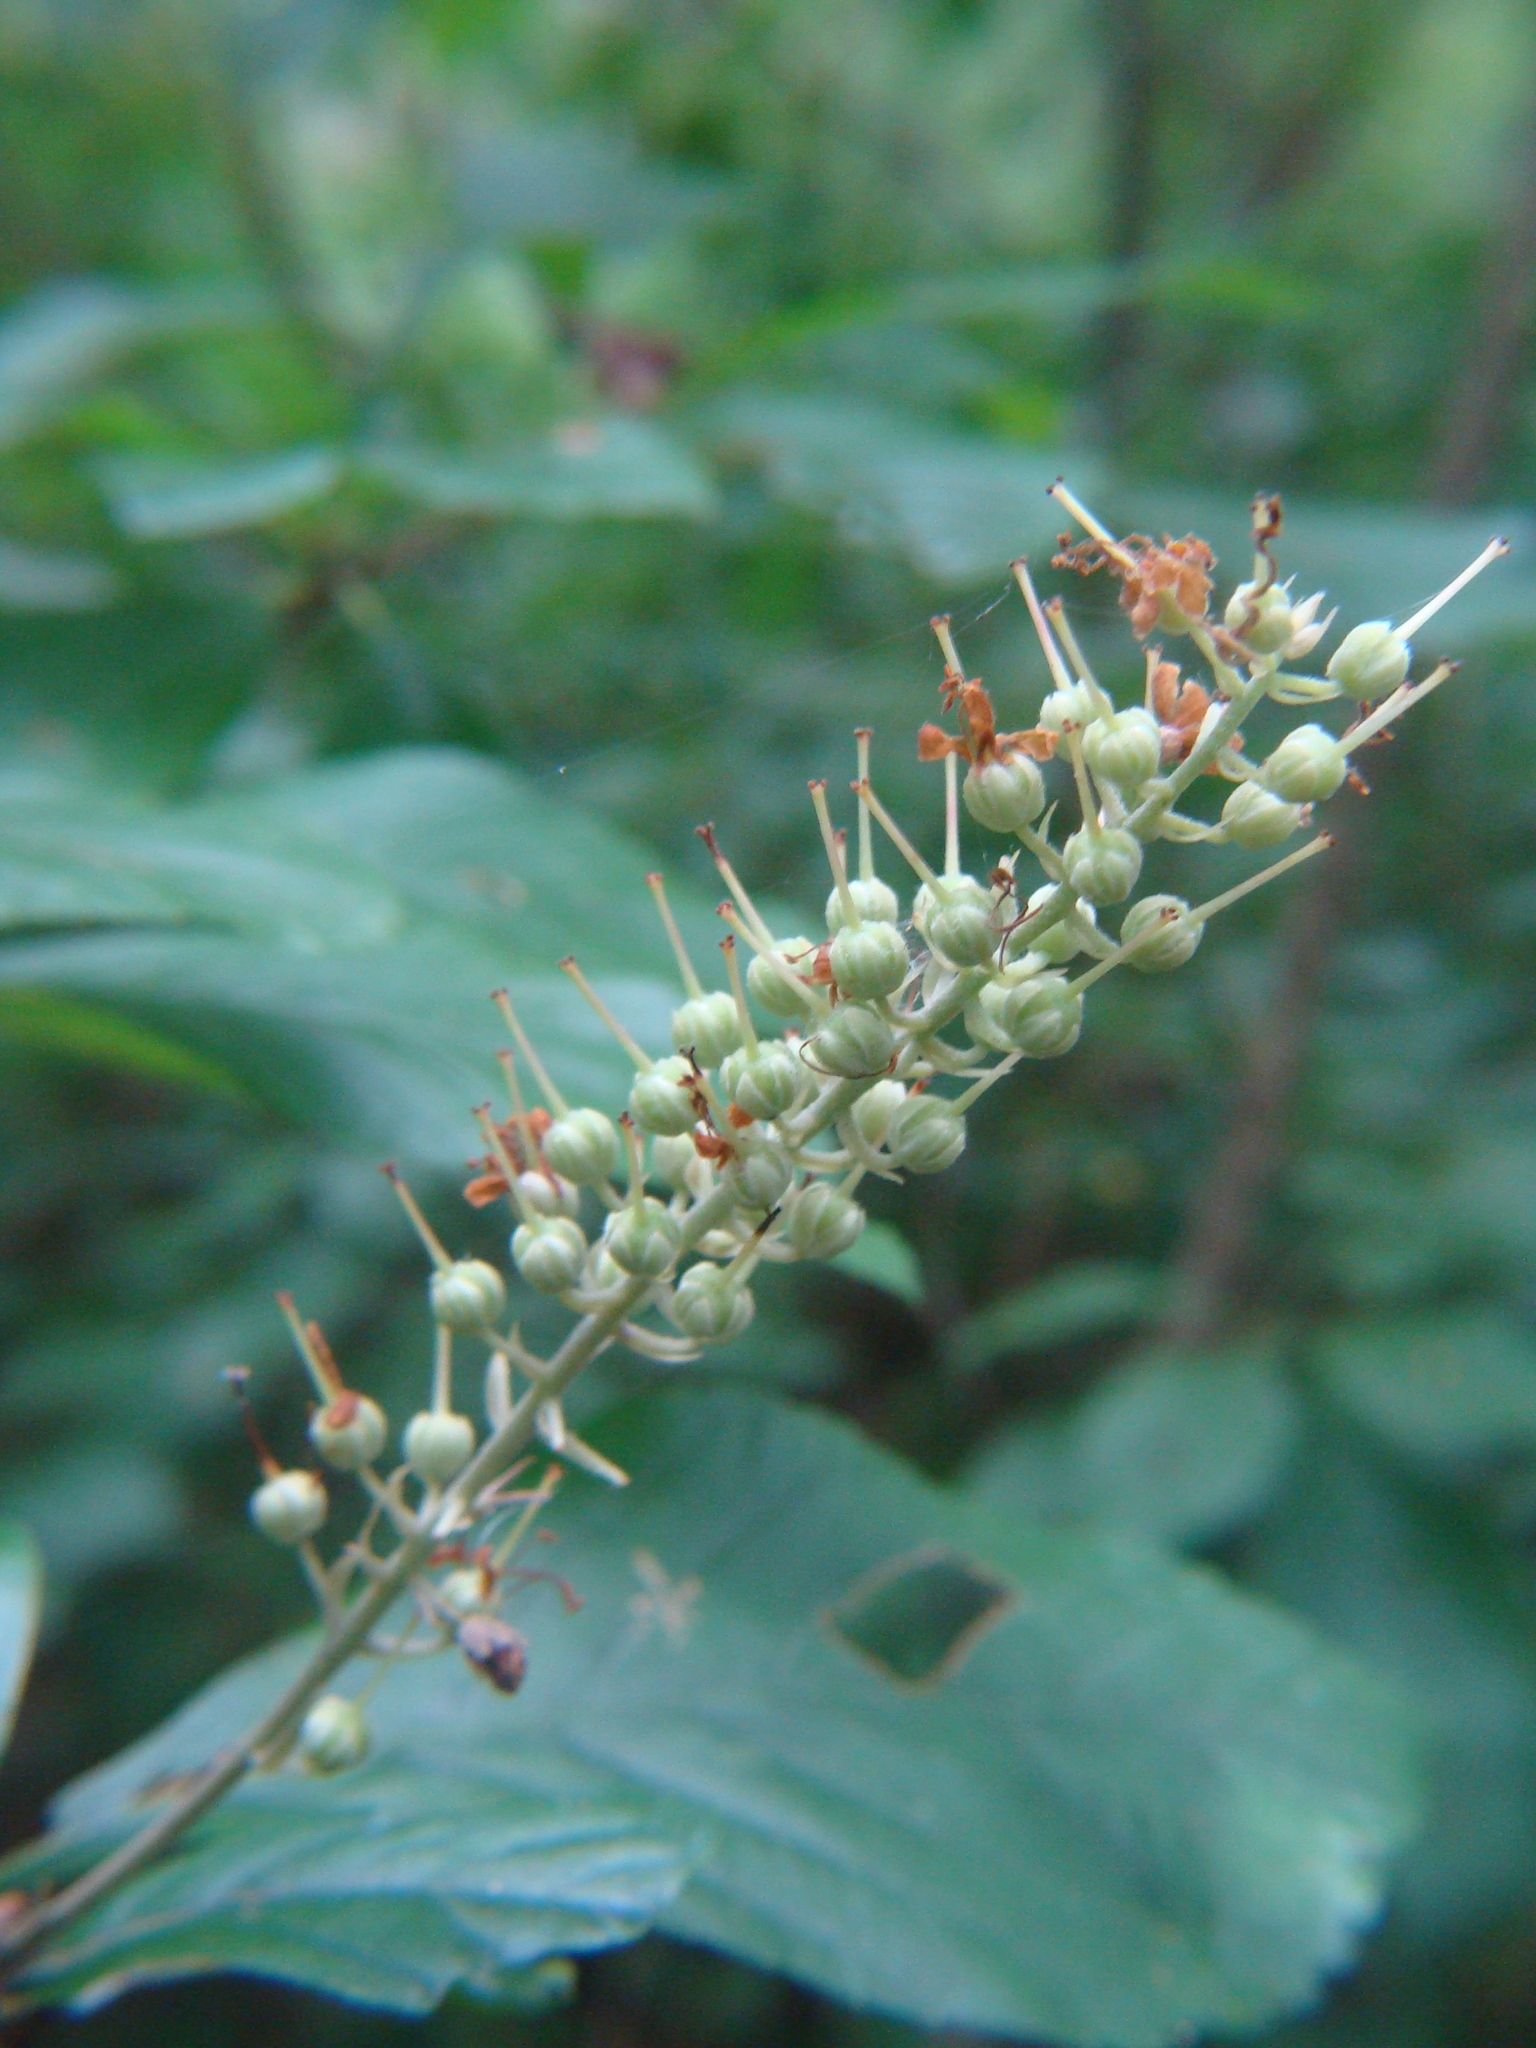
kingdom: Plantae
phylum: Tracheophyta
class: Magnoliopsida
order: Ericales
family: Clethraceae
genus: Clethra
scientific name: Clethra alnifolia
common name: Sweet pepperbush
